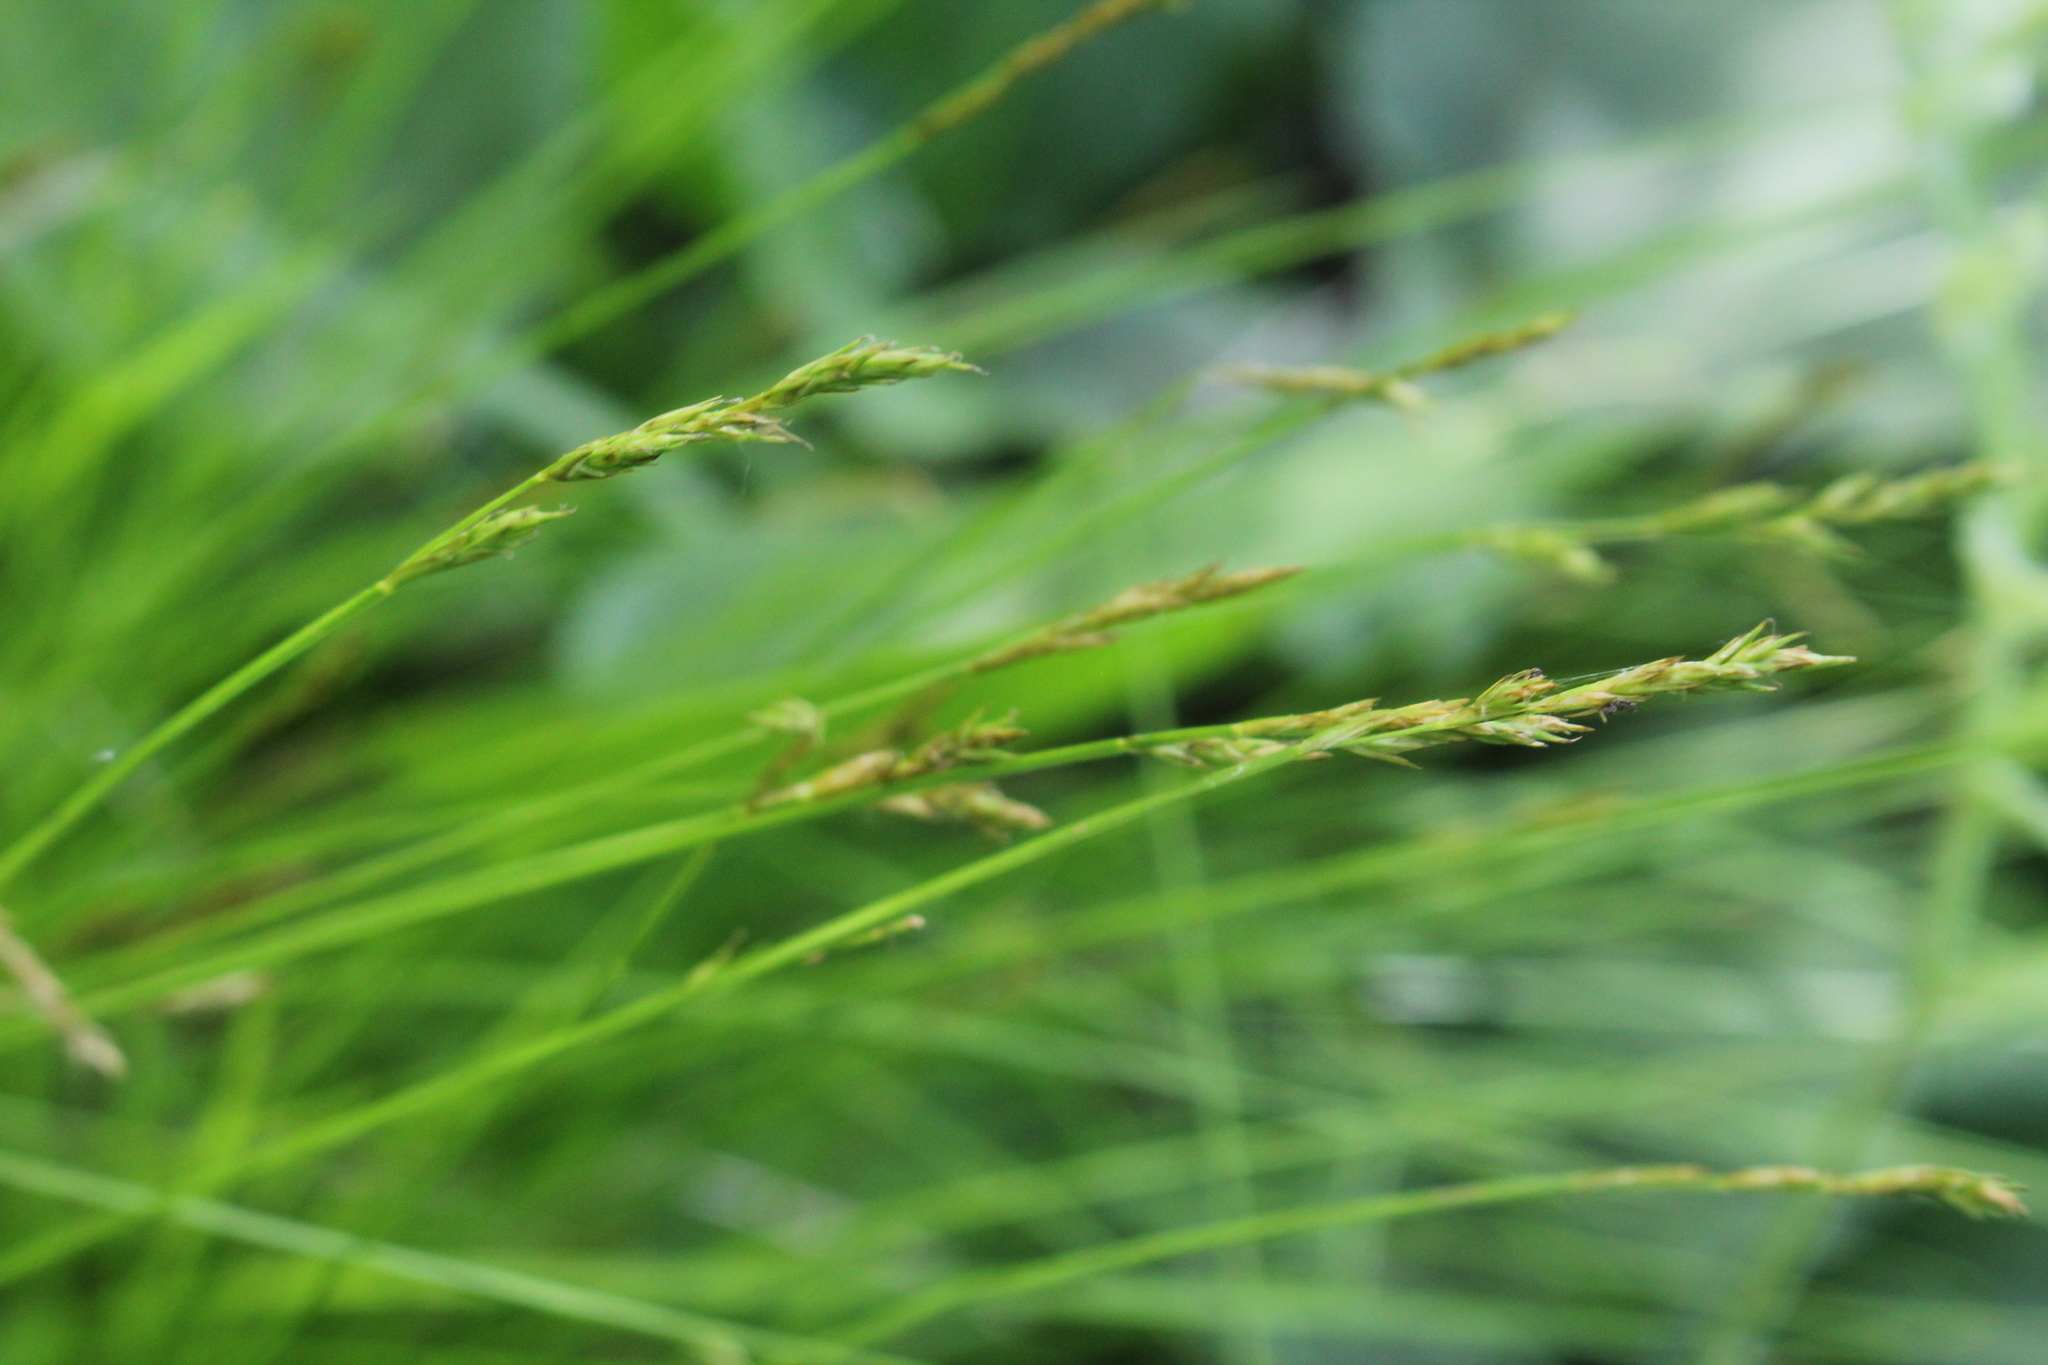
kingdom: Plantae
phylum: Tracheophyta
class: Liliopsida
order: Poales
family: Cyperaceae
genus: Carex
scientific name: Carex bromoides
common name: Brome hummock sedge
